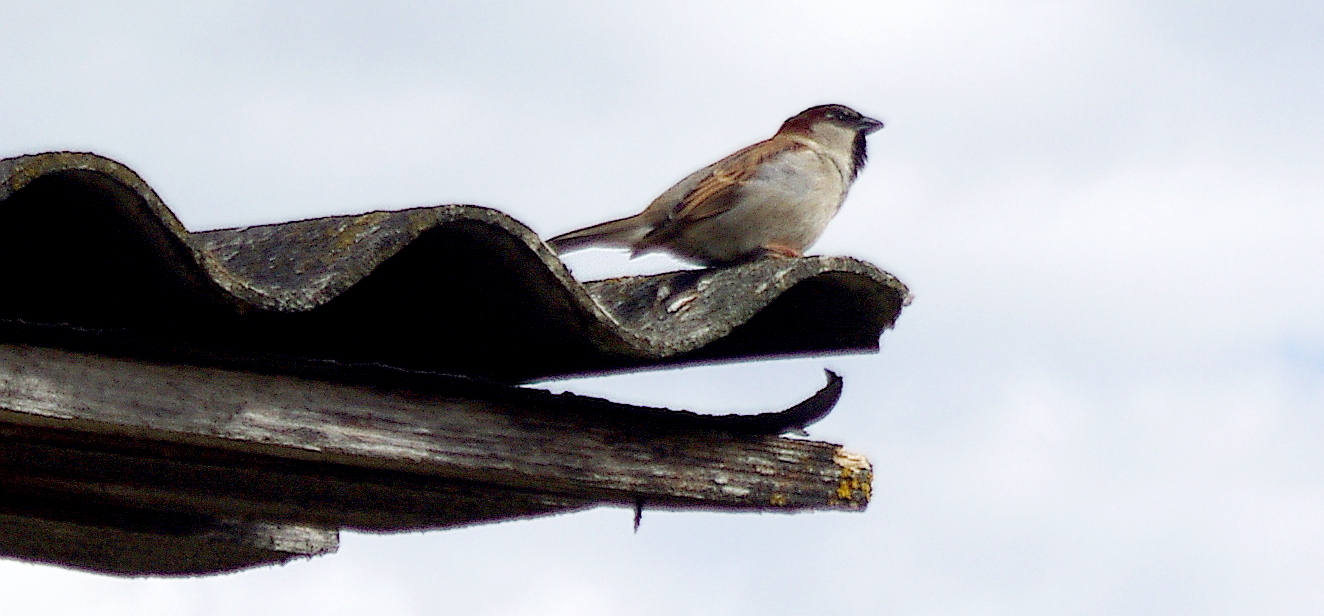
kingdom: Animalia
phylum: Chordata
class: Aves
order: Passeriformes
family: Passeridae
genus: Passer
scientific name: Passer domesticus
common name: House sparrow
